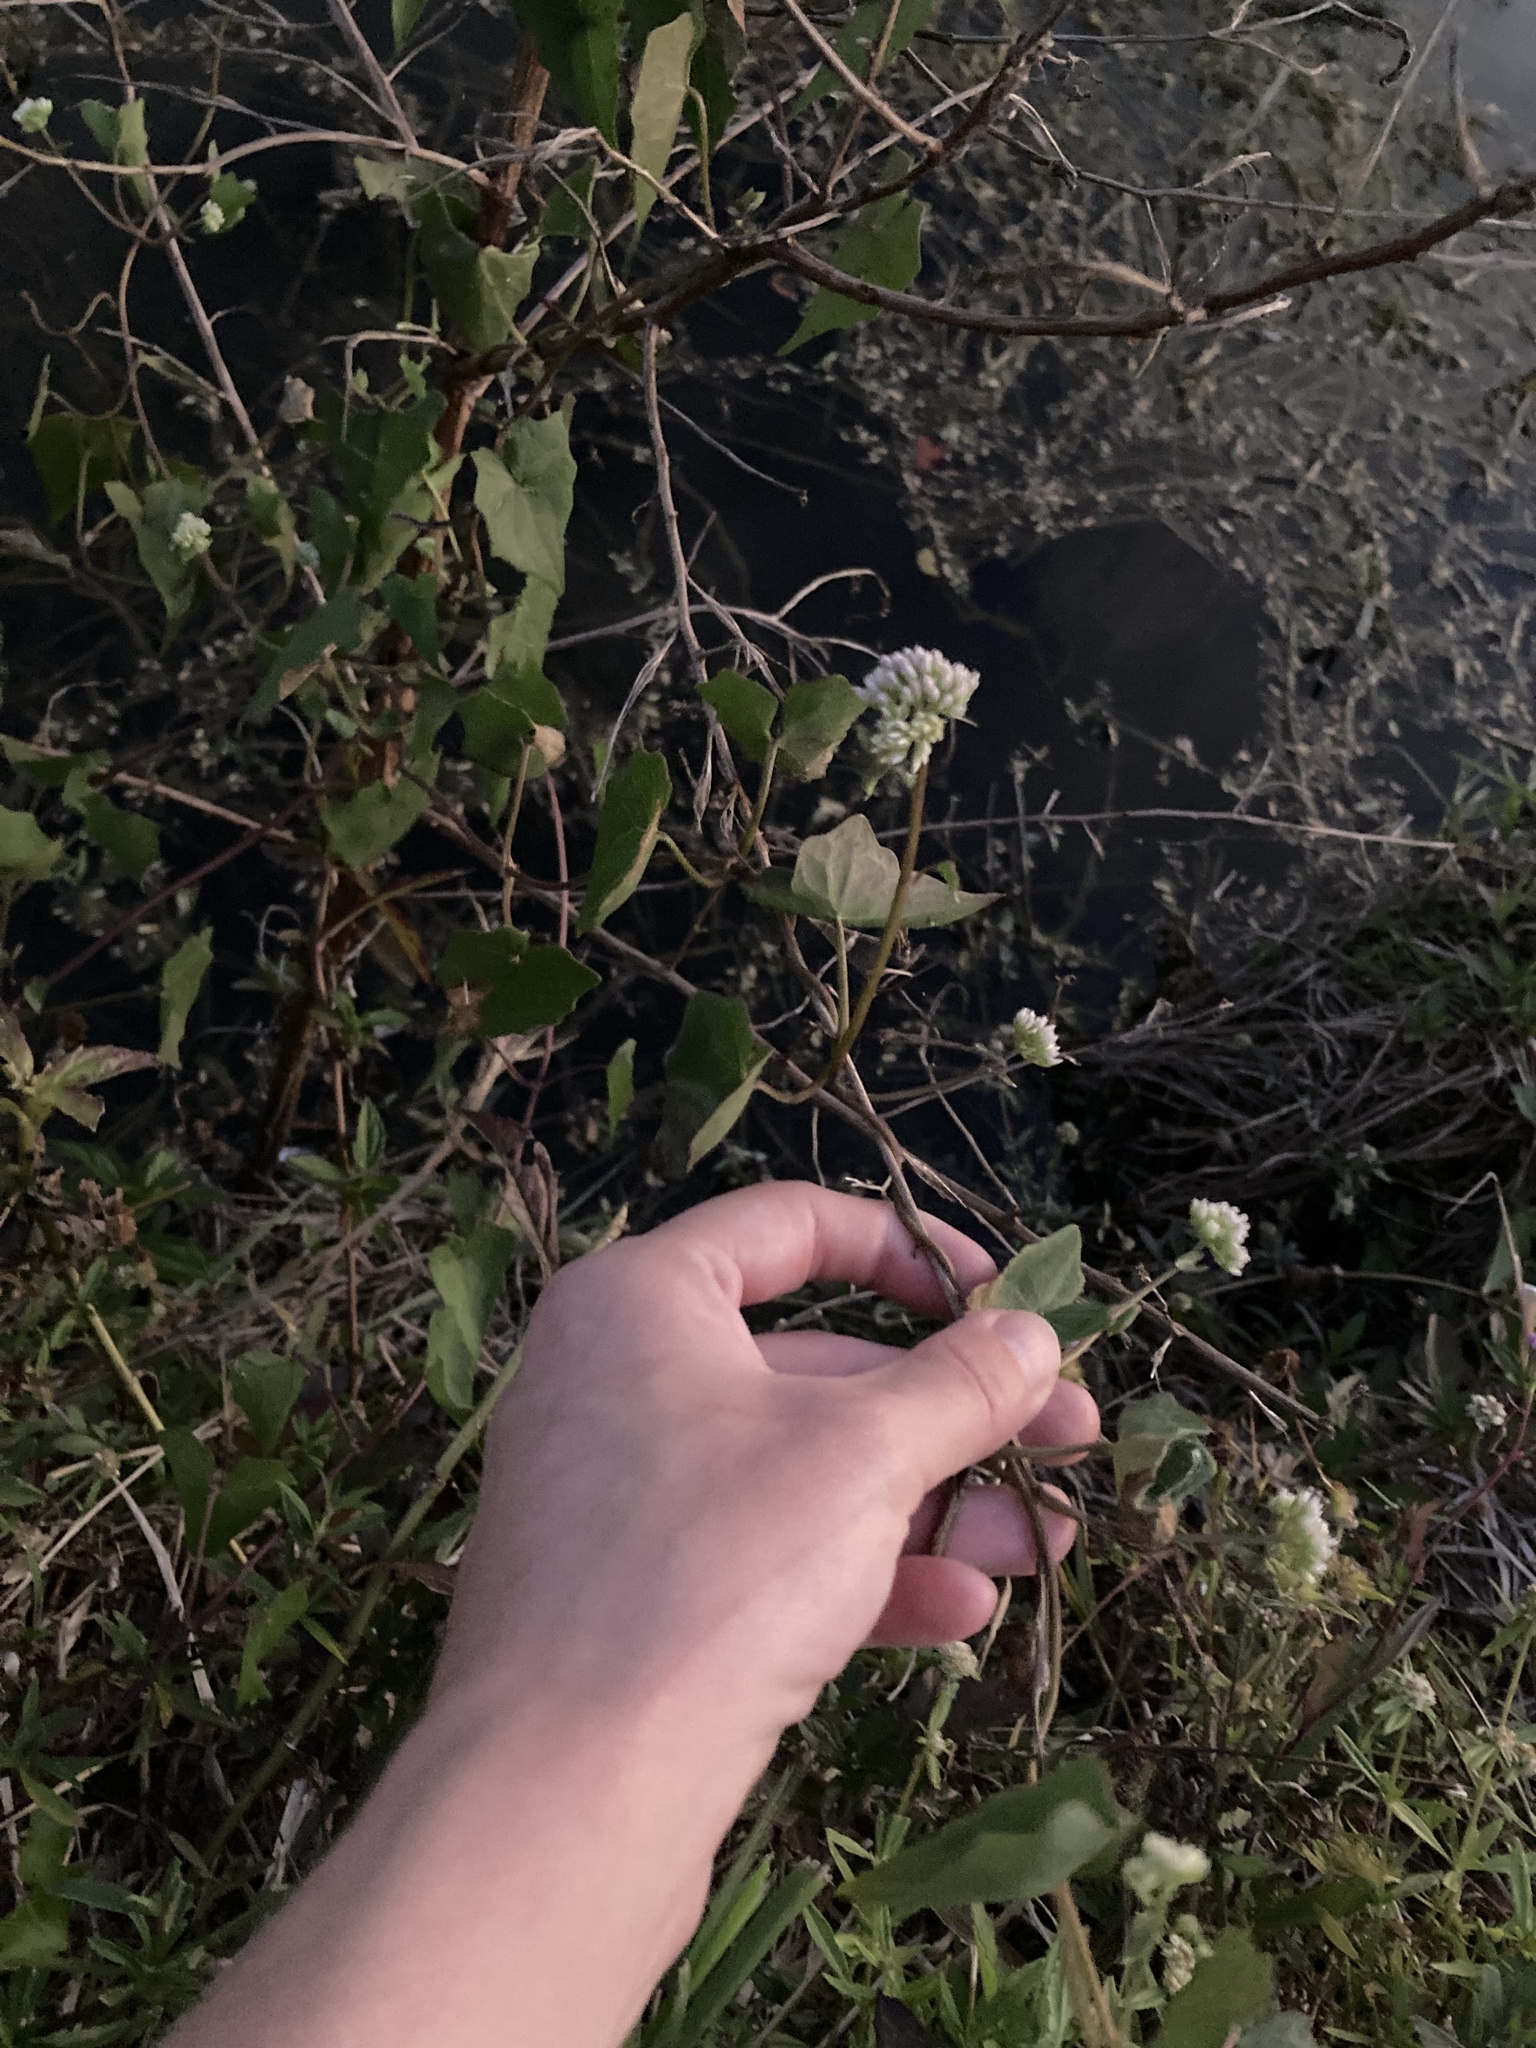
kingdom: Plantae
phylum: Tracheophyta
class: Magnoliopsida
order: Asterales
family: Asteraceae
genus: Mikania
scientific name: Mikania scandens
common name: Climbing hempvine
